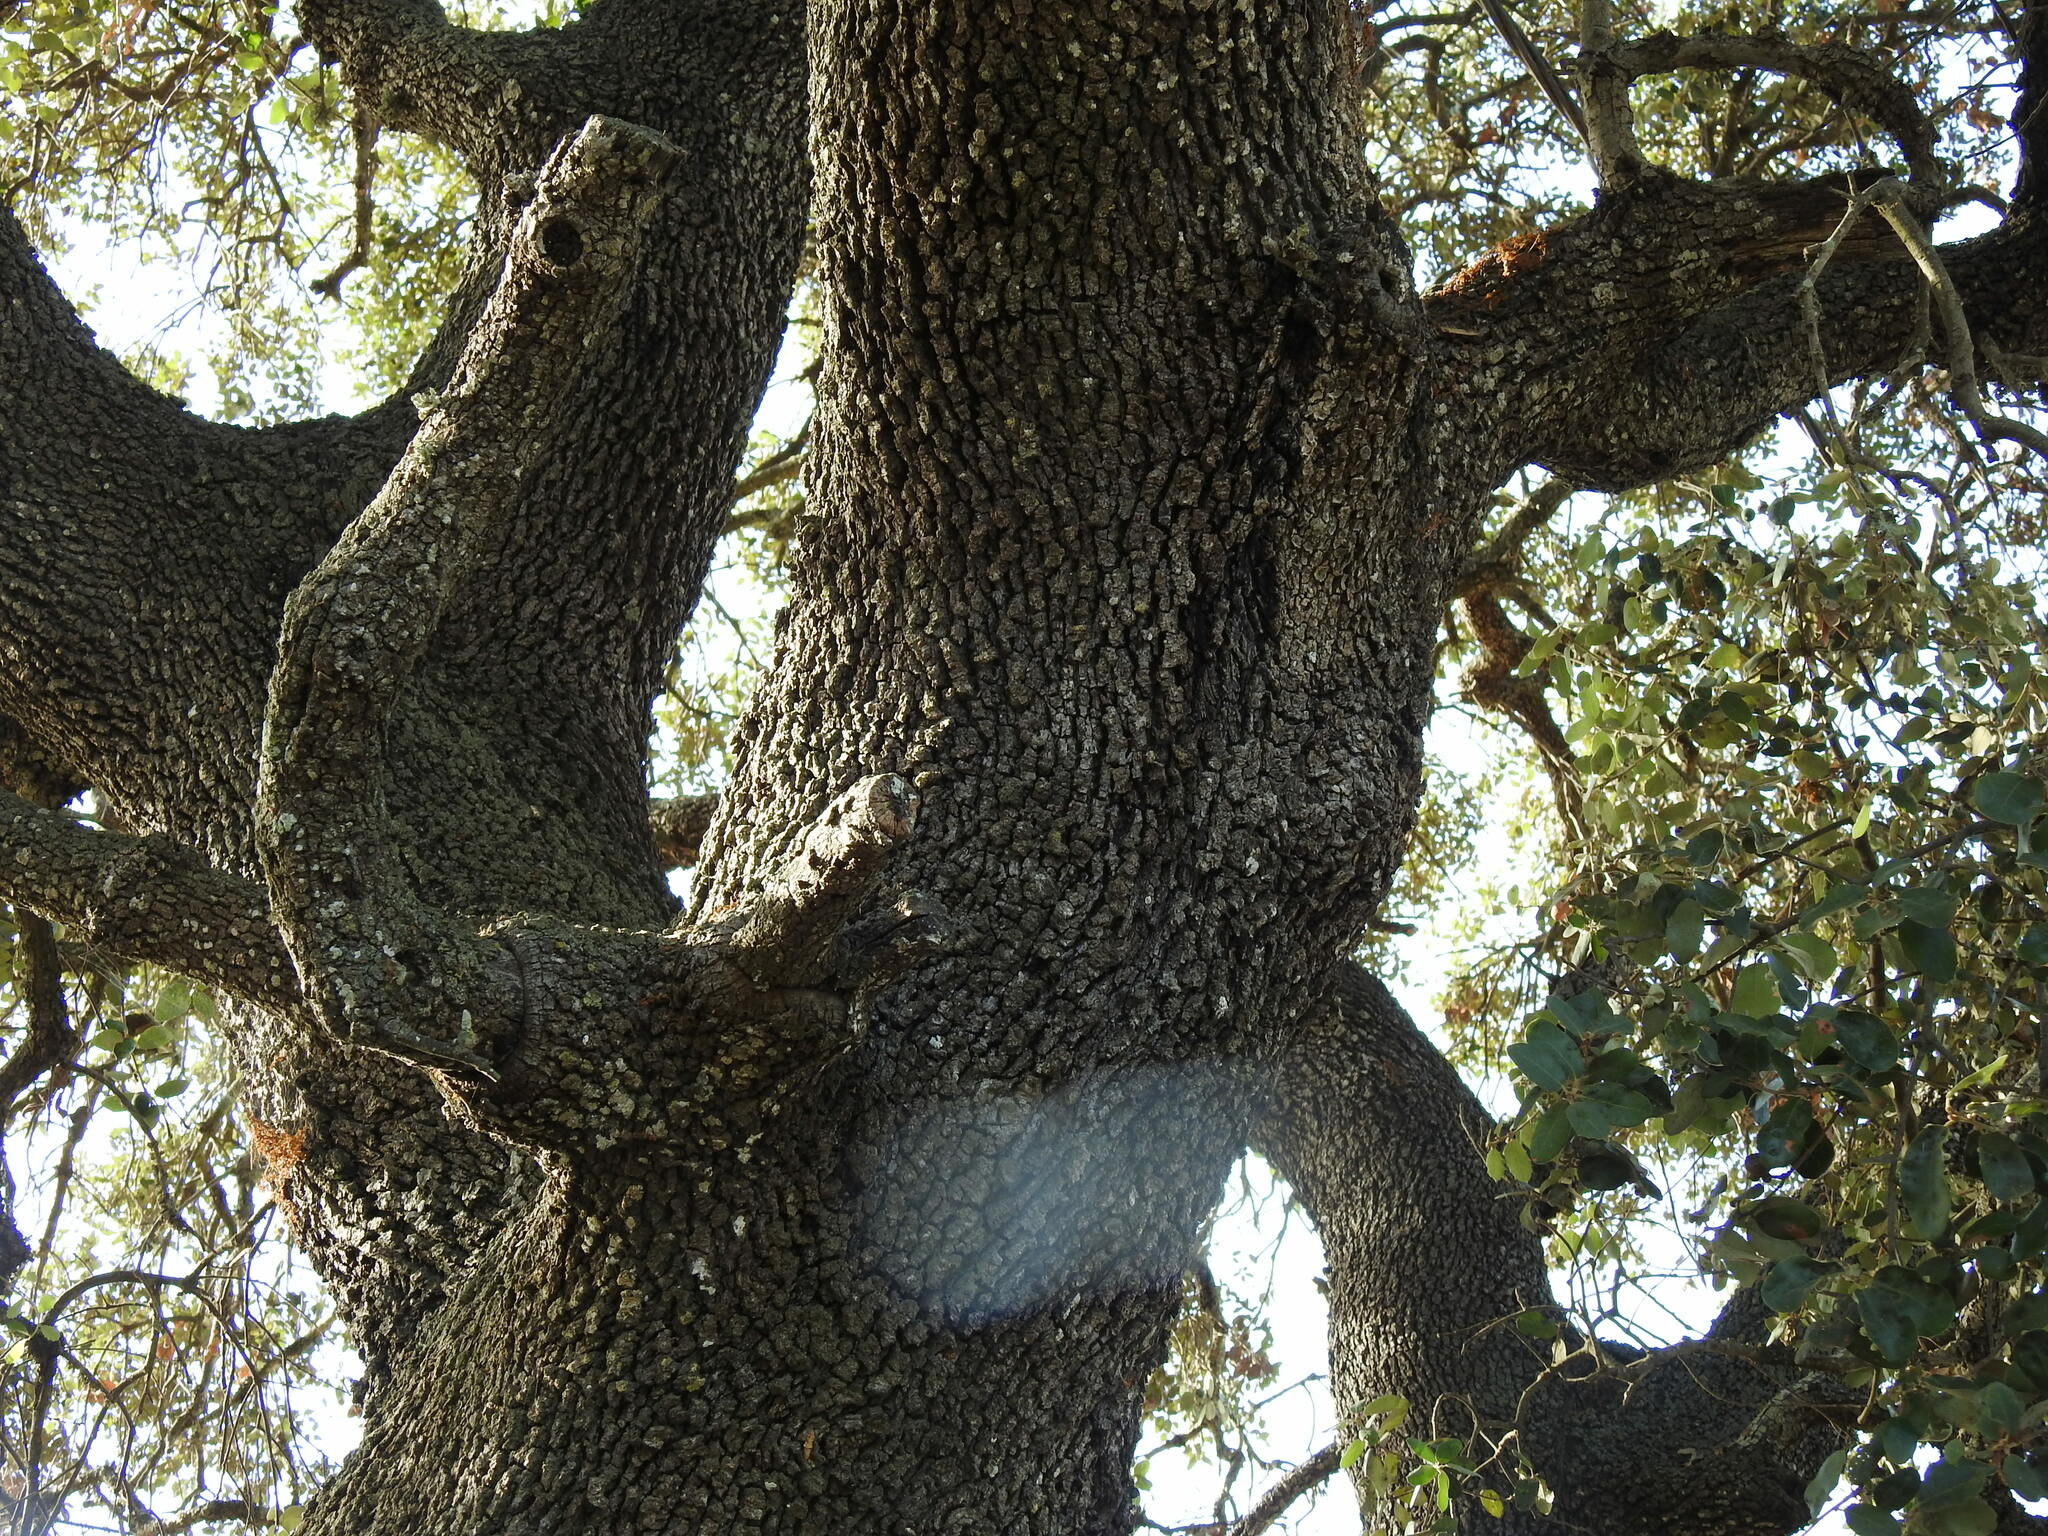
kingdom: Plantae
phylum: Tracheophyta
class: Magnoliopsida
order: Fagales
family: Fagaceae
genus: Quercus
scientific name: Quercus rotundifolia
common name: Holm oak
